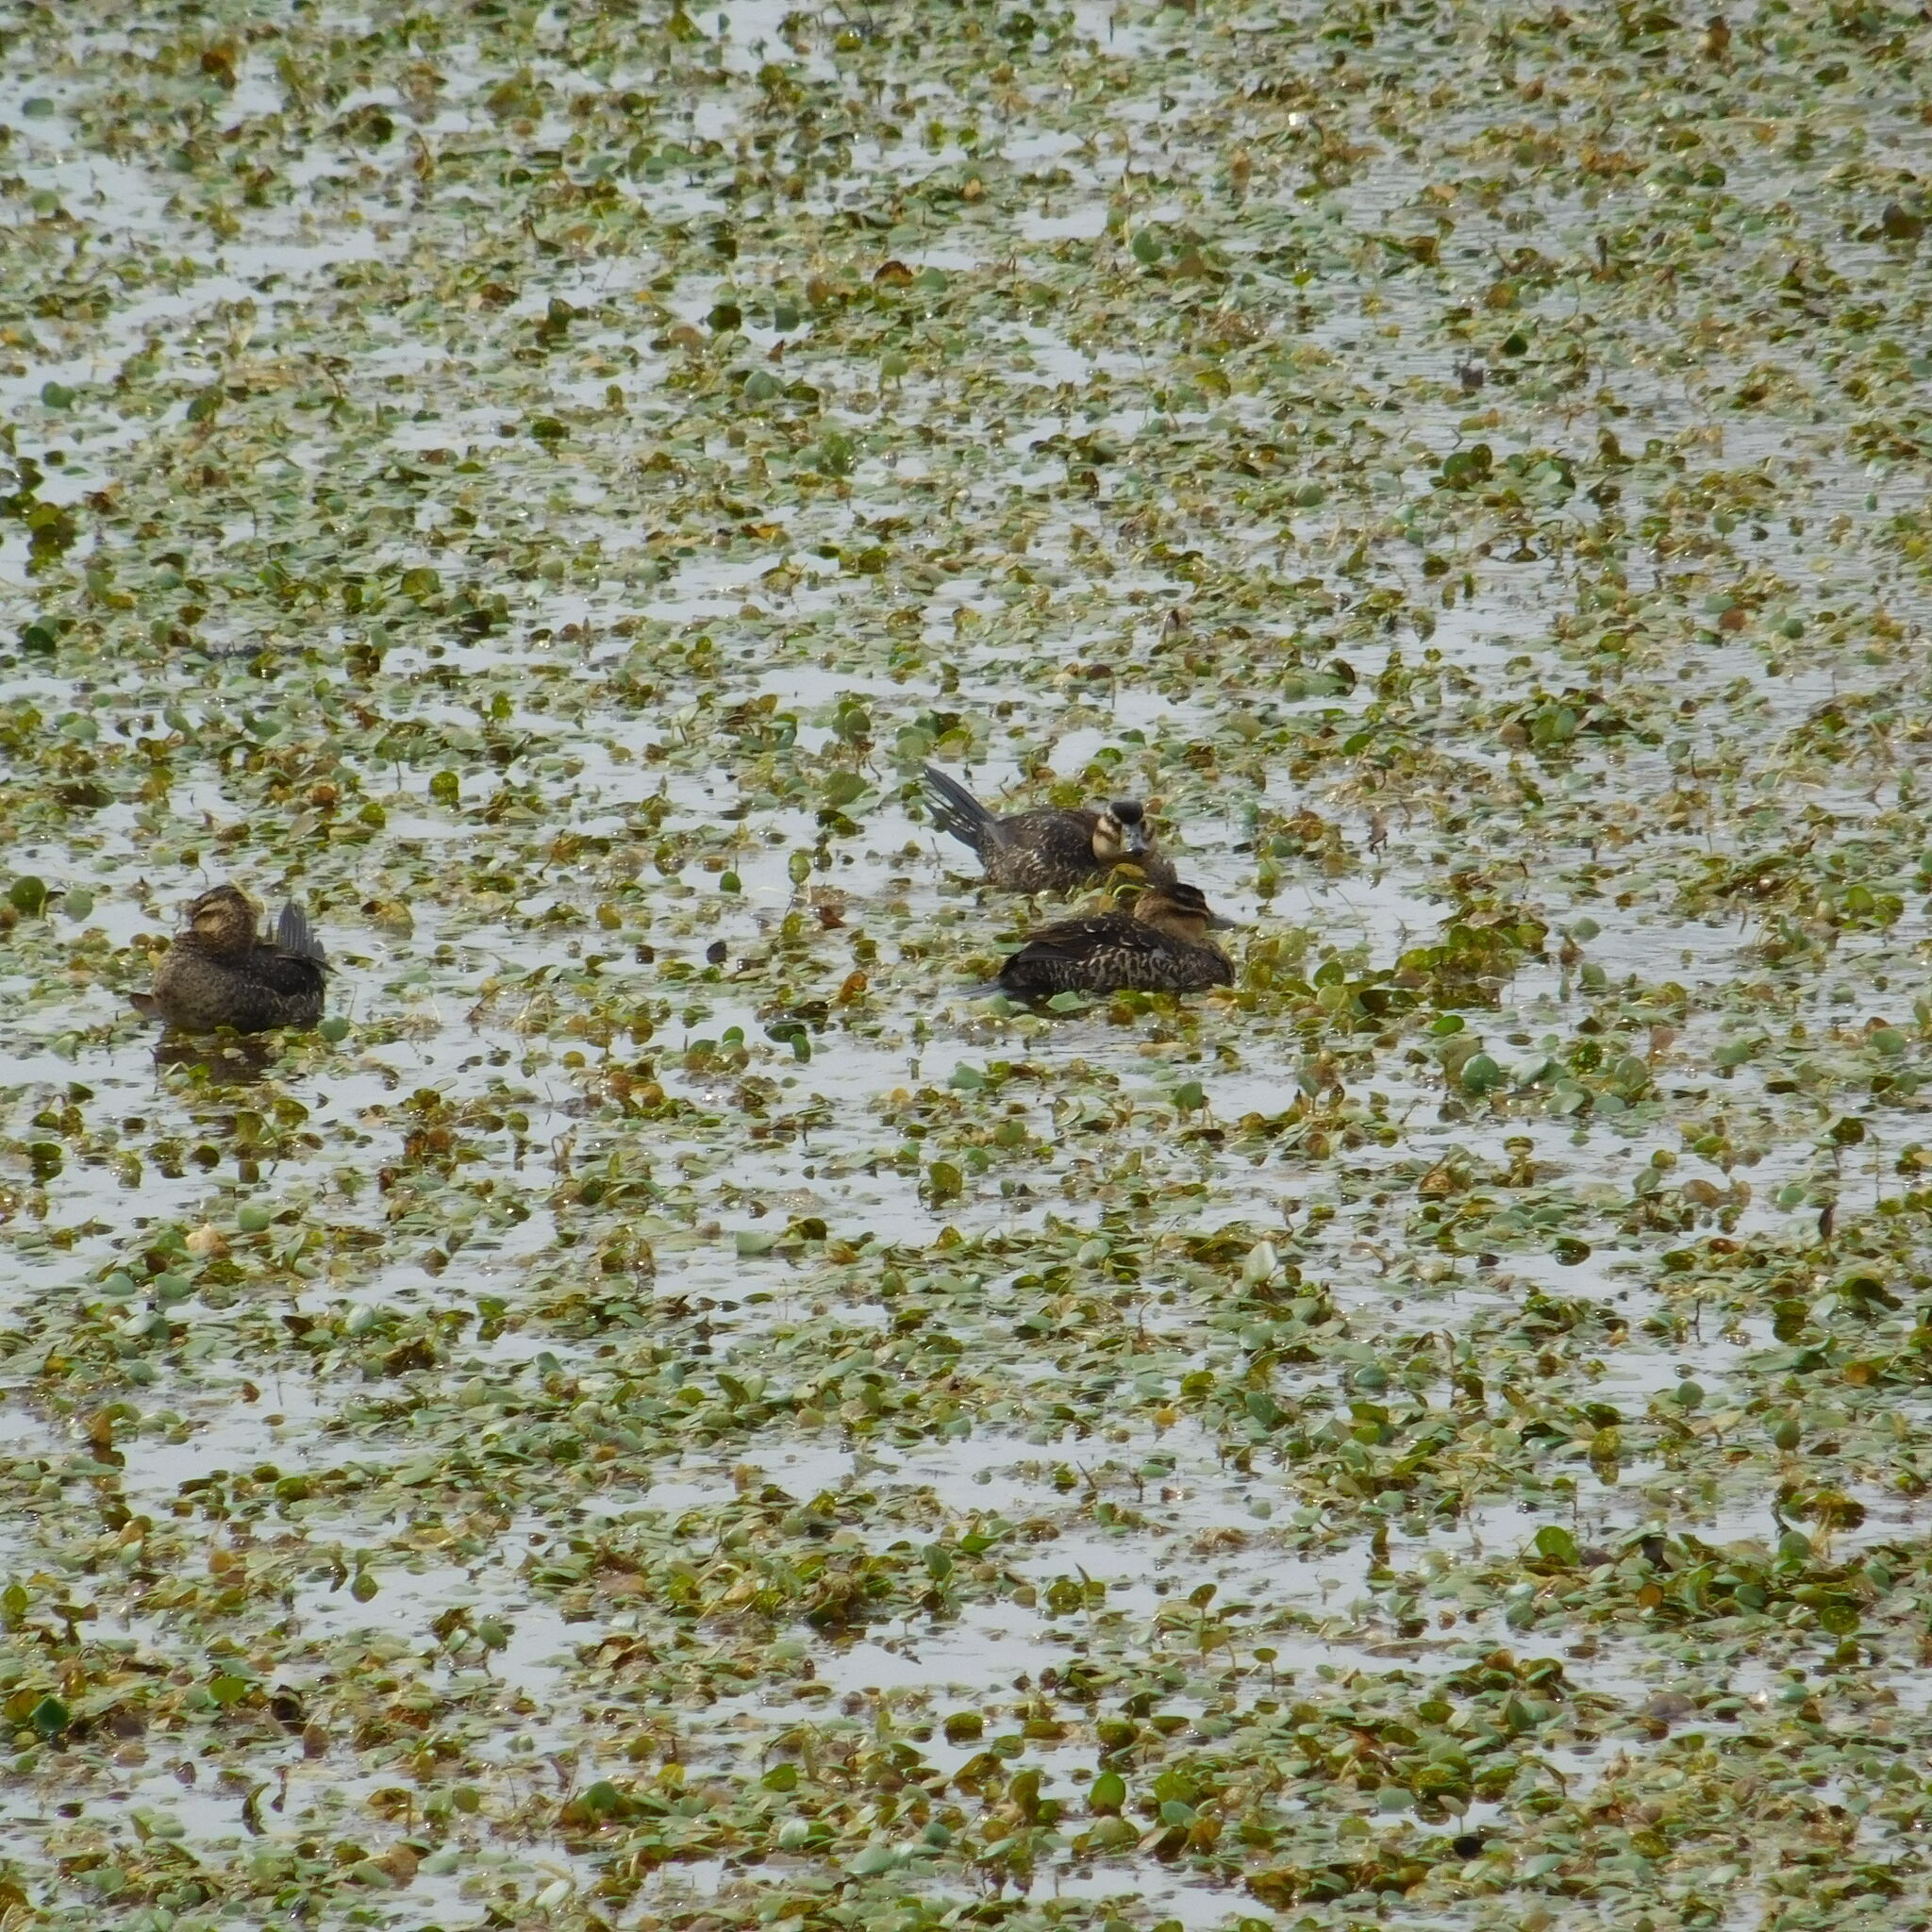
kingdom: Animalia
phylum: Chordata
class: Aves
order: Anseriformes
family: Anatidae
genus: Nomonyx
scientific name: Nomonyx dominicus
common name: Masked duck
